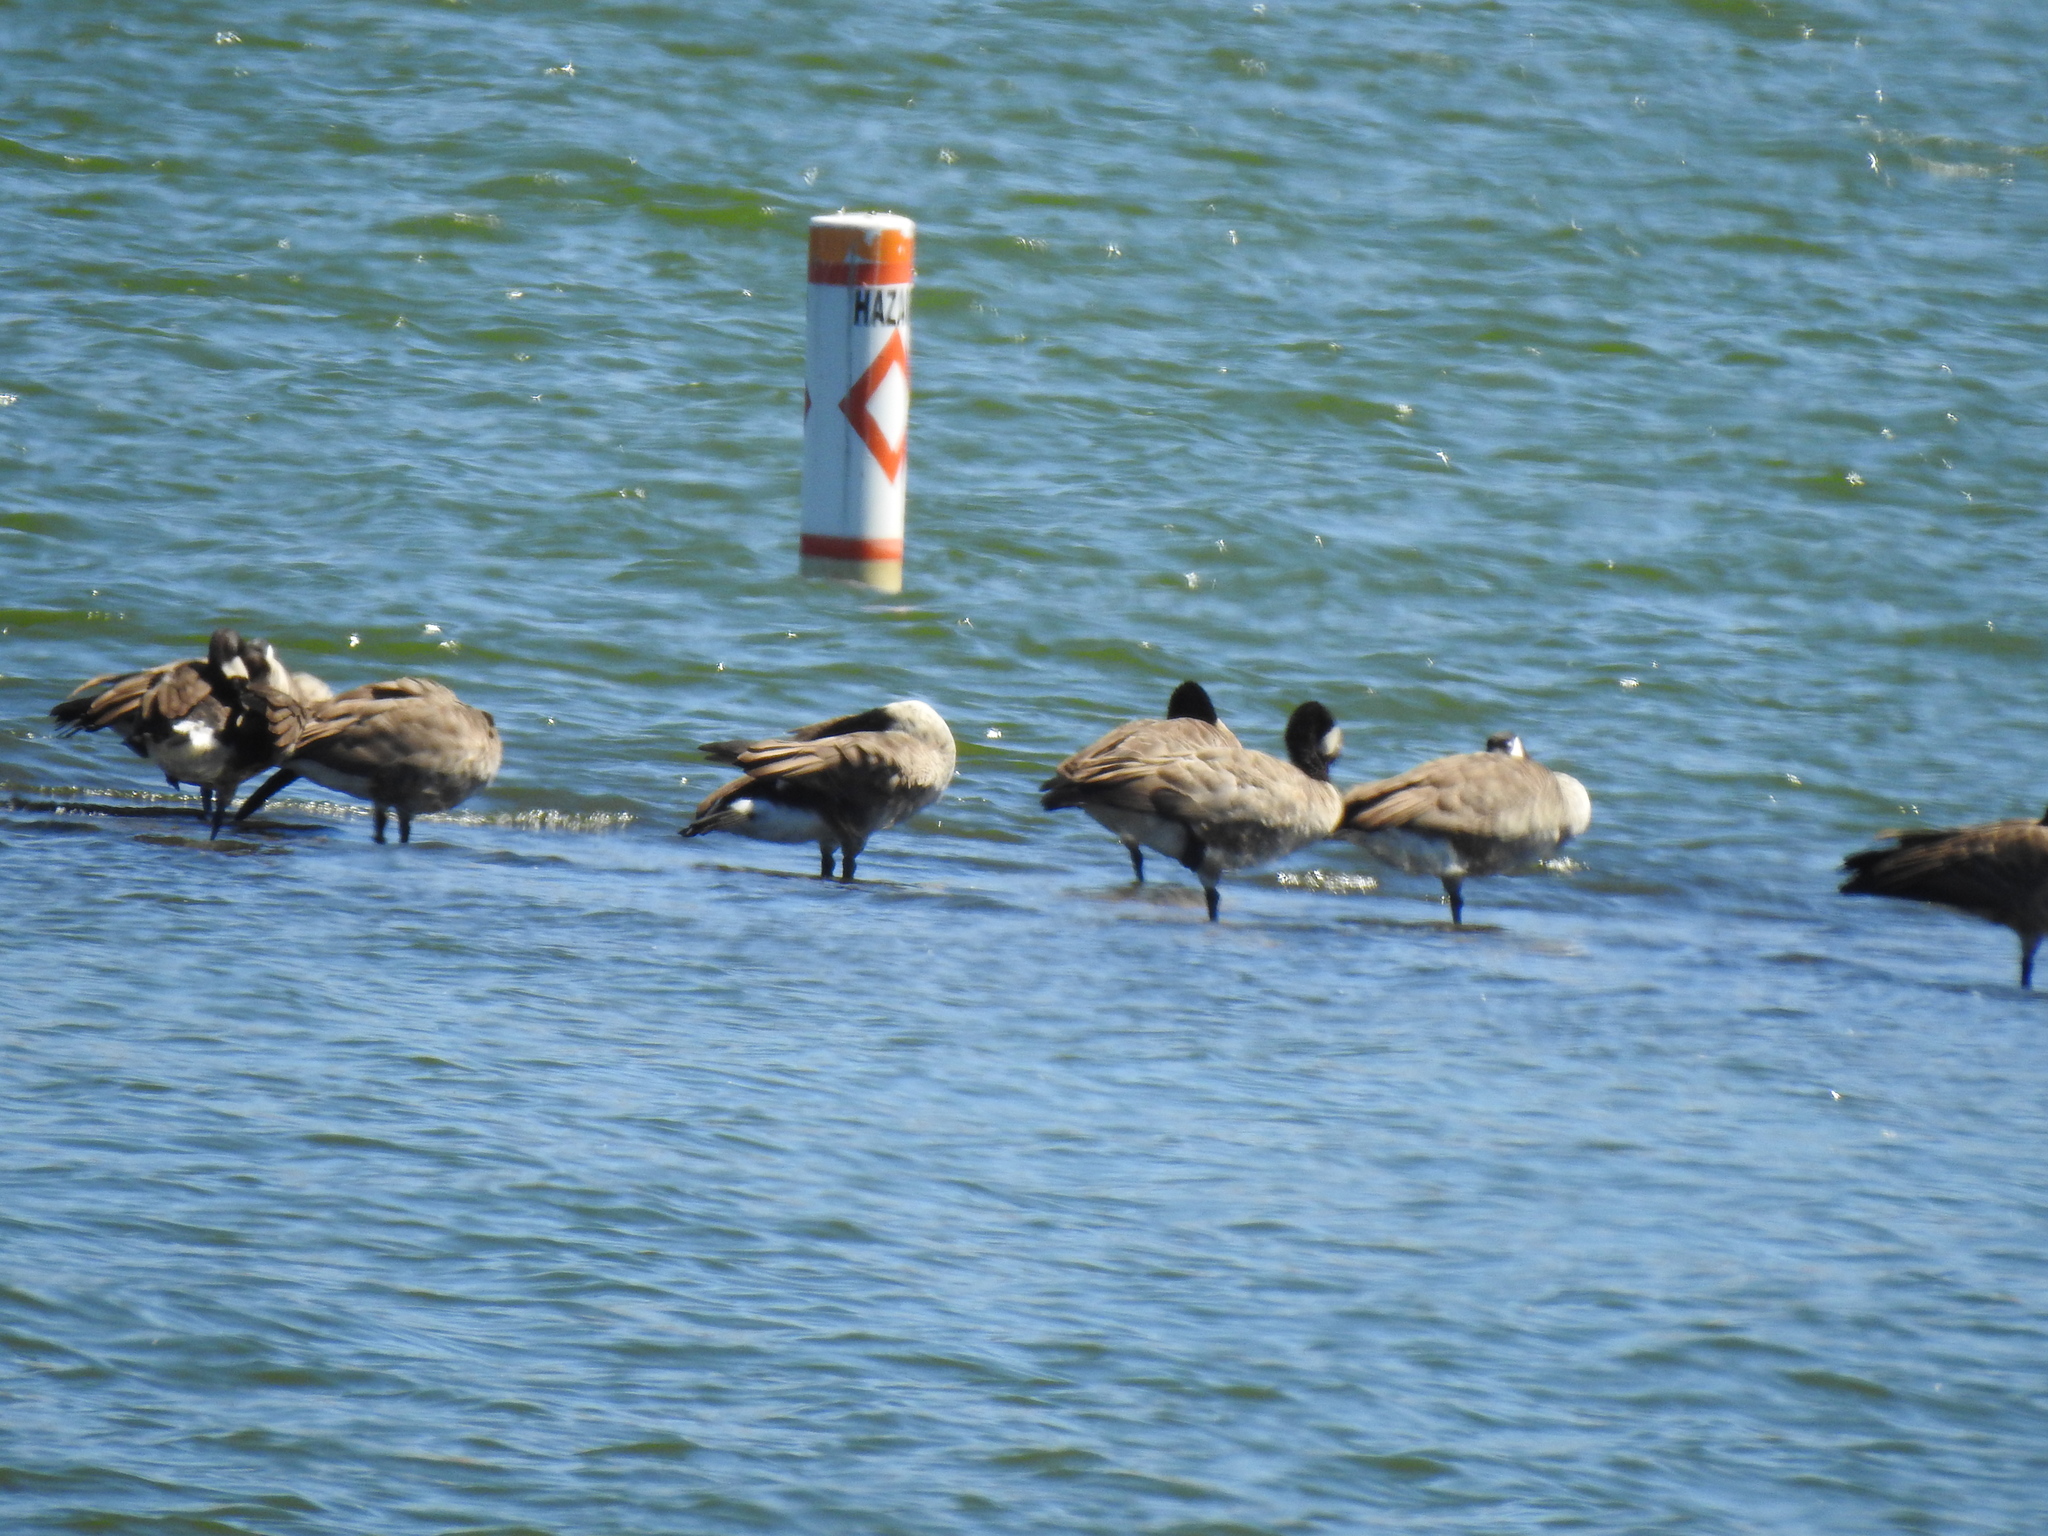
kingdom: Animalia
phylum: Chordata
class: Aves
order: Anseriformes
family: Anatidae
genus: Branta
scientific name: Branta canadensis
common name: Canada goose
